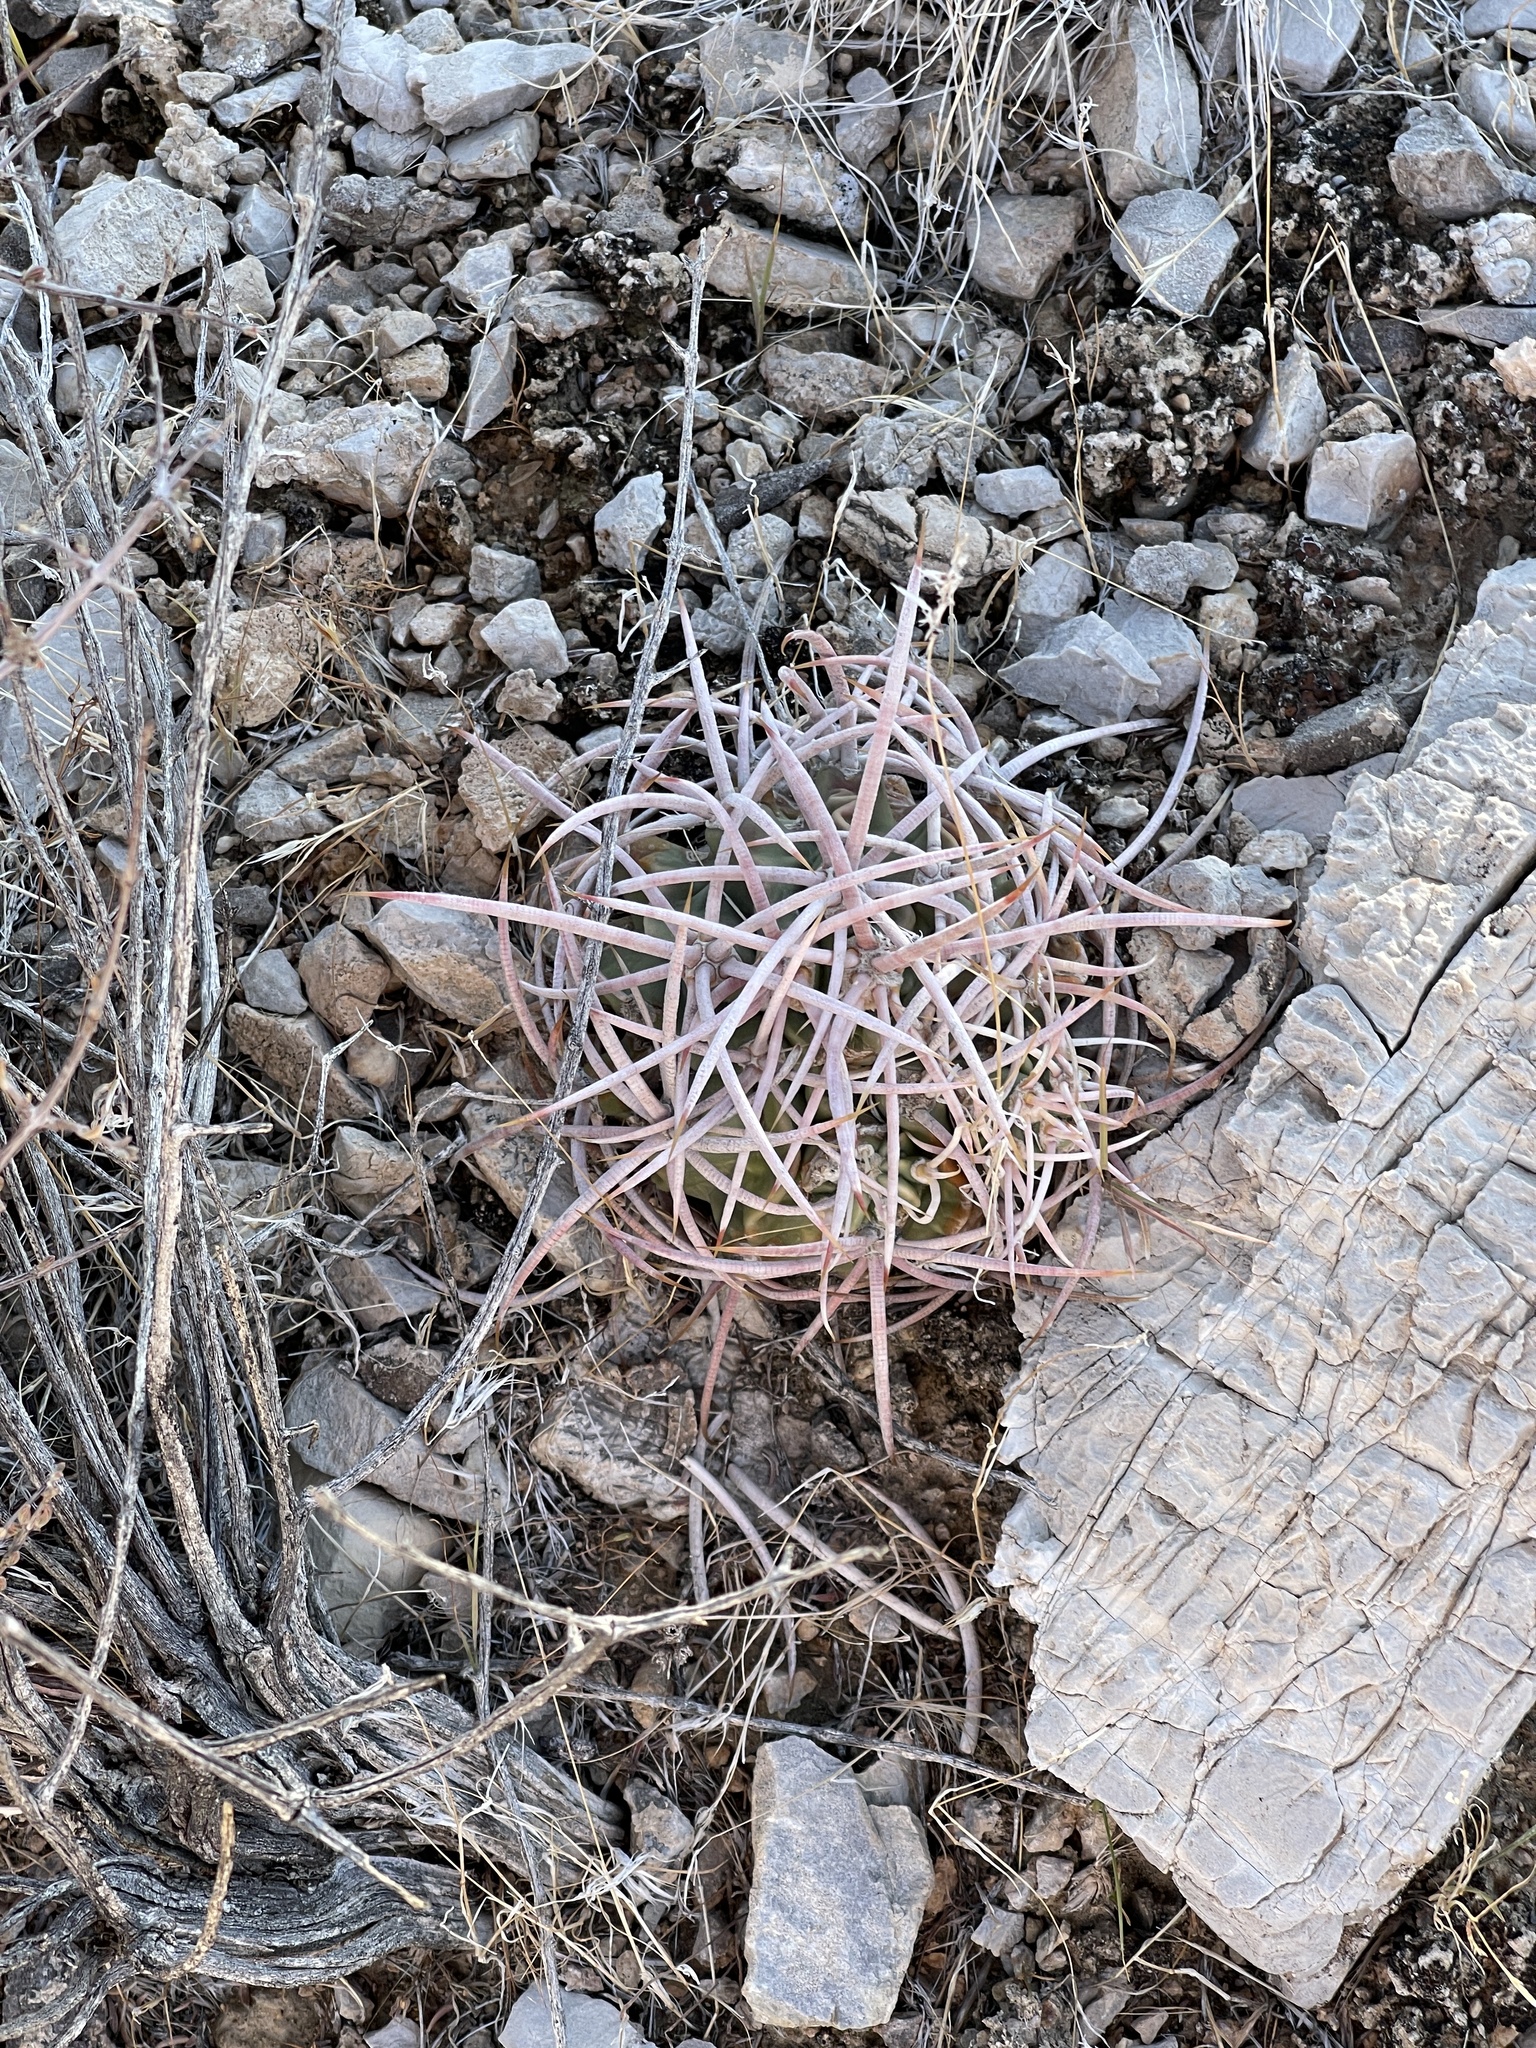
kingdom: Plantae
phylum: Tracheophyta
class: Magnoliopsida
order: Caryophyllales
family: Cactaceae
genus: Echinocactus
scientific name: Echinocactus polycephalus
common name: Cottontop cactus
